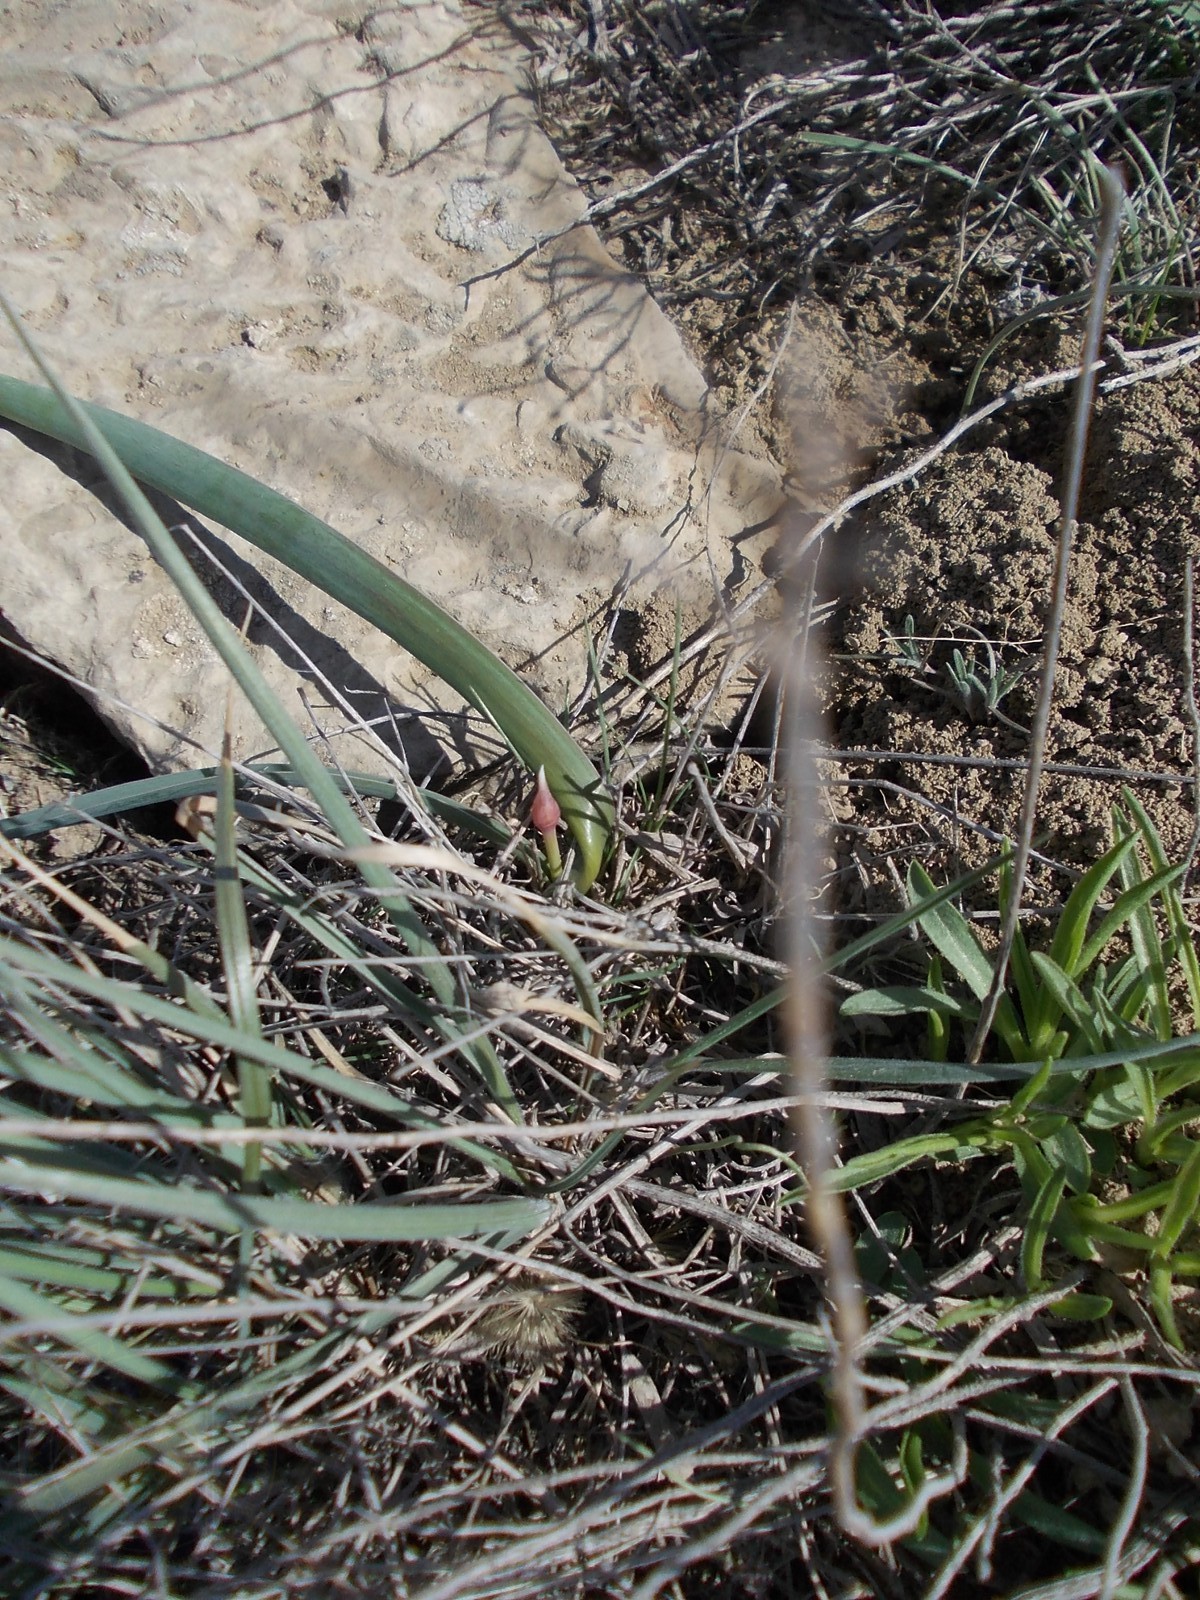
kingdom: Plantae
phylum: Tracheophyta
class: Liliopsida
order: Asparagales
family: Amaryllidaceae
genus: Allium
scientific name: Allium tulipifolium
